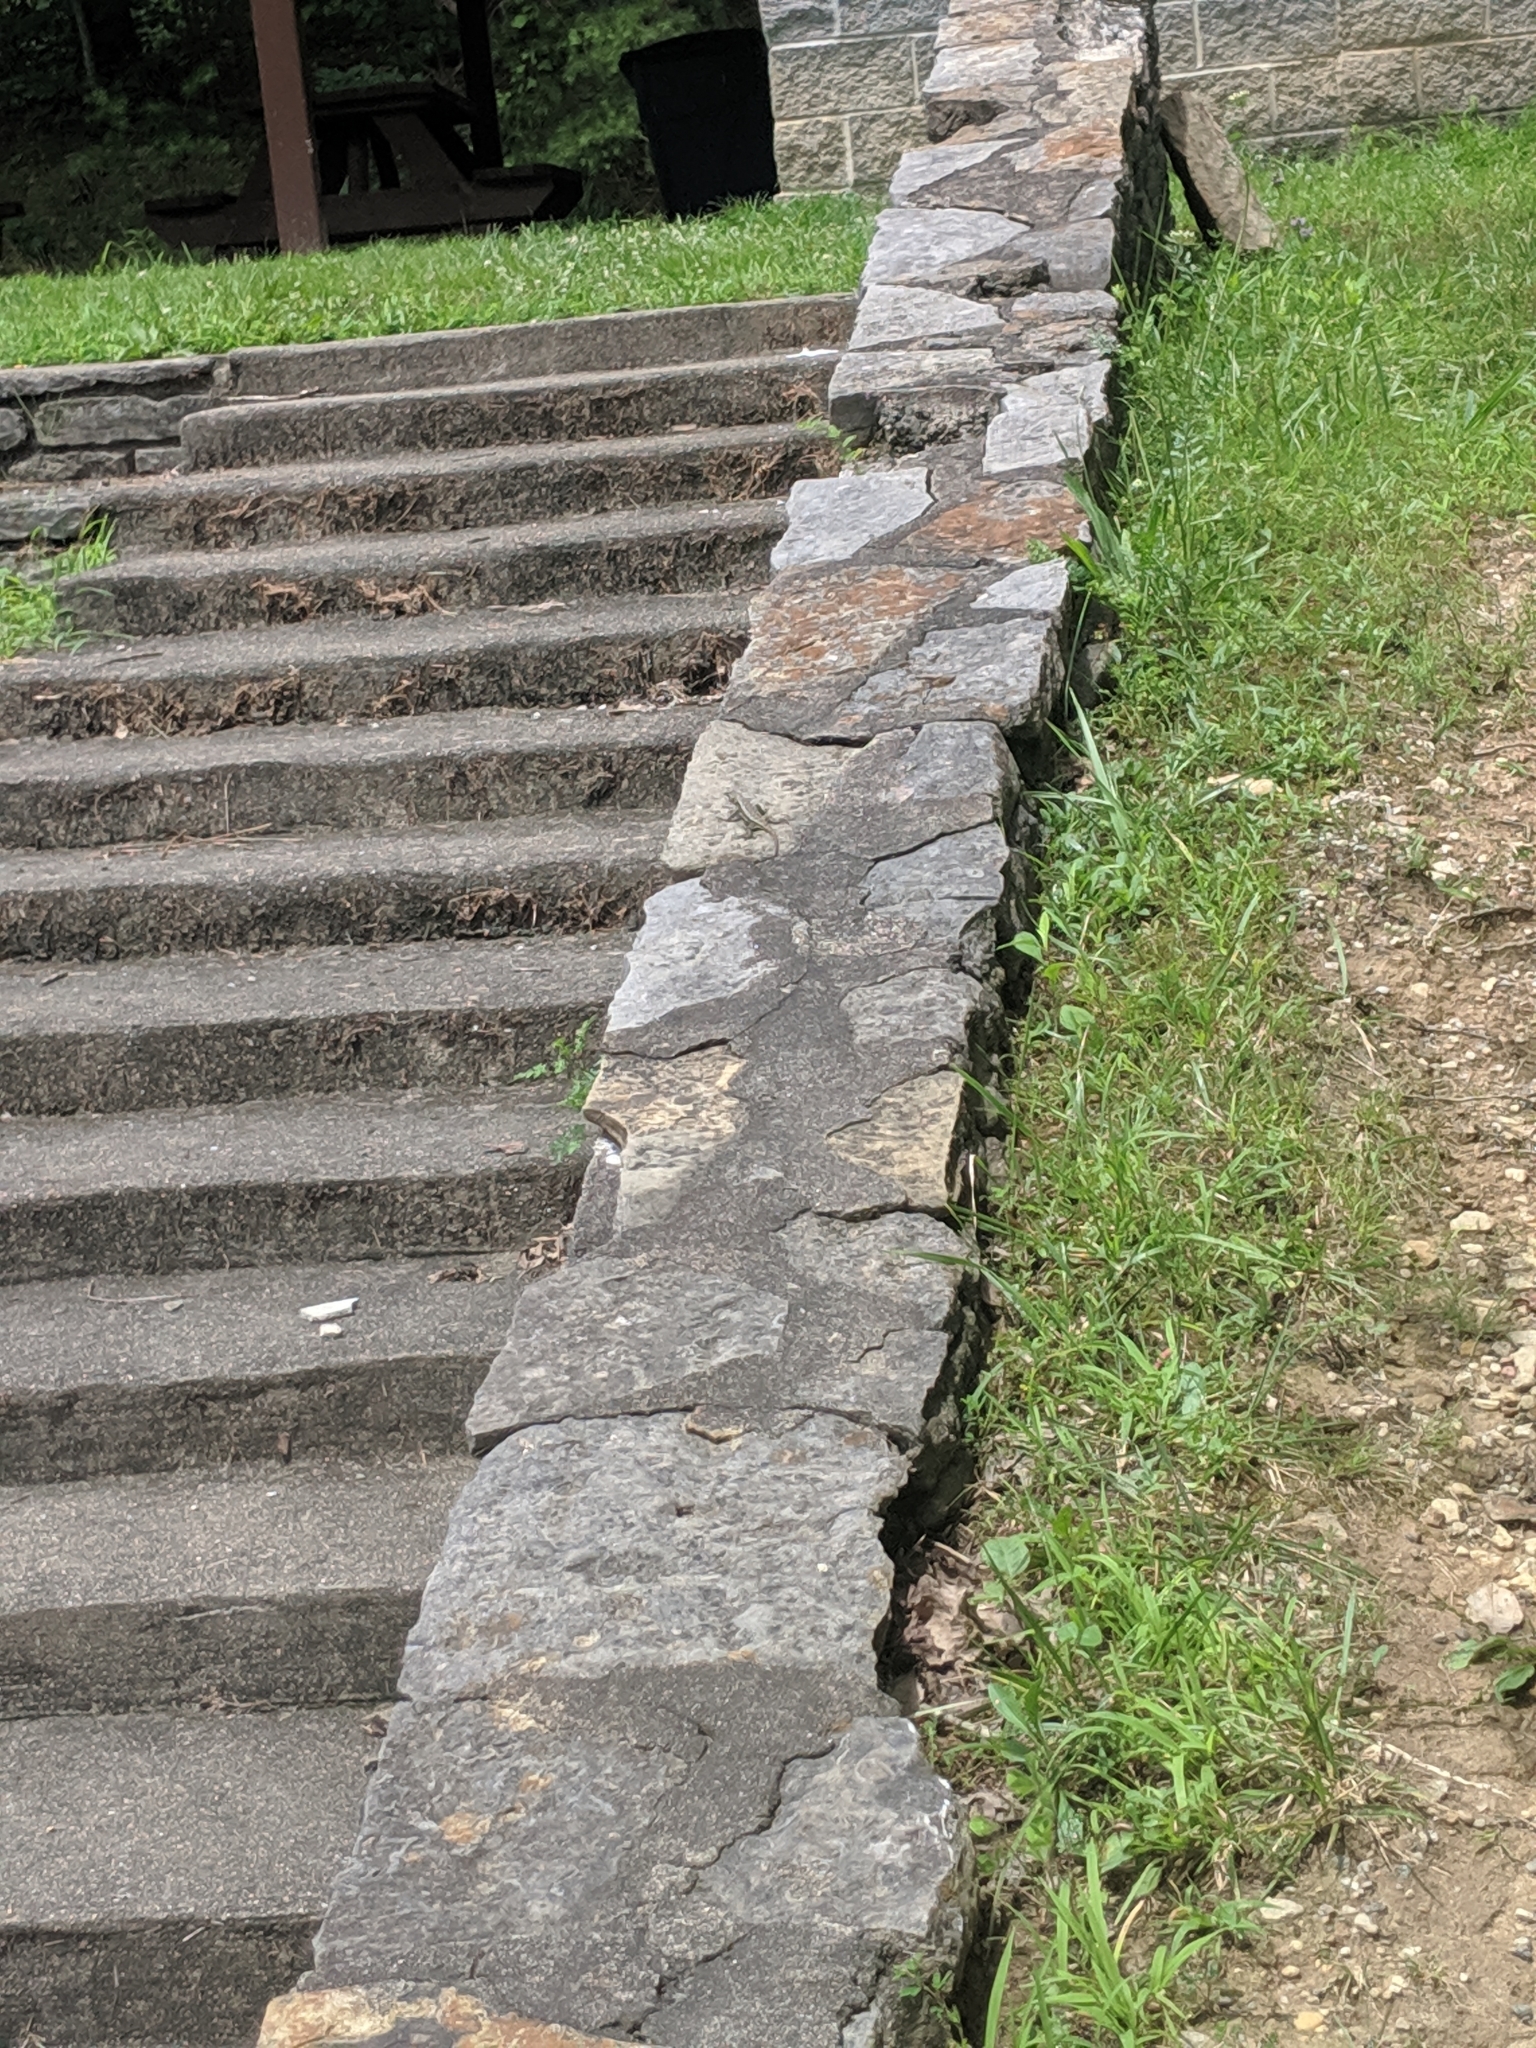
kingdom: Animalia
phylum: Chordata
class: Squamata
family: Phrynosomatidae
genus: Sceloporus
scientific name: Sceloporus undulatus
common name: Eastern fence lizard
